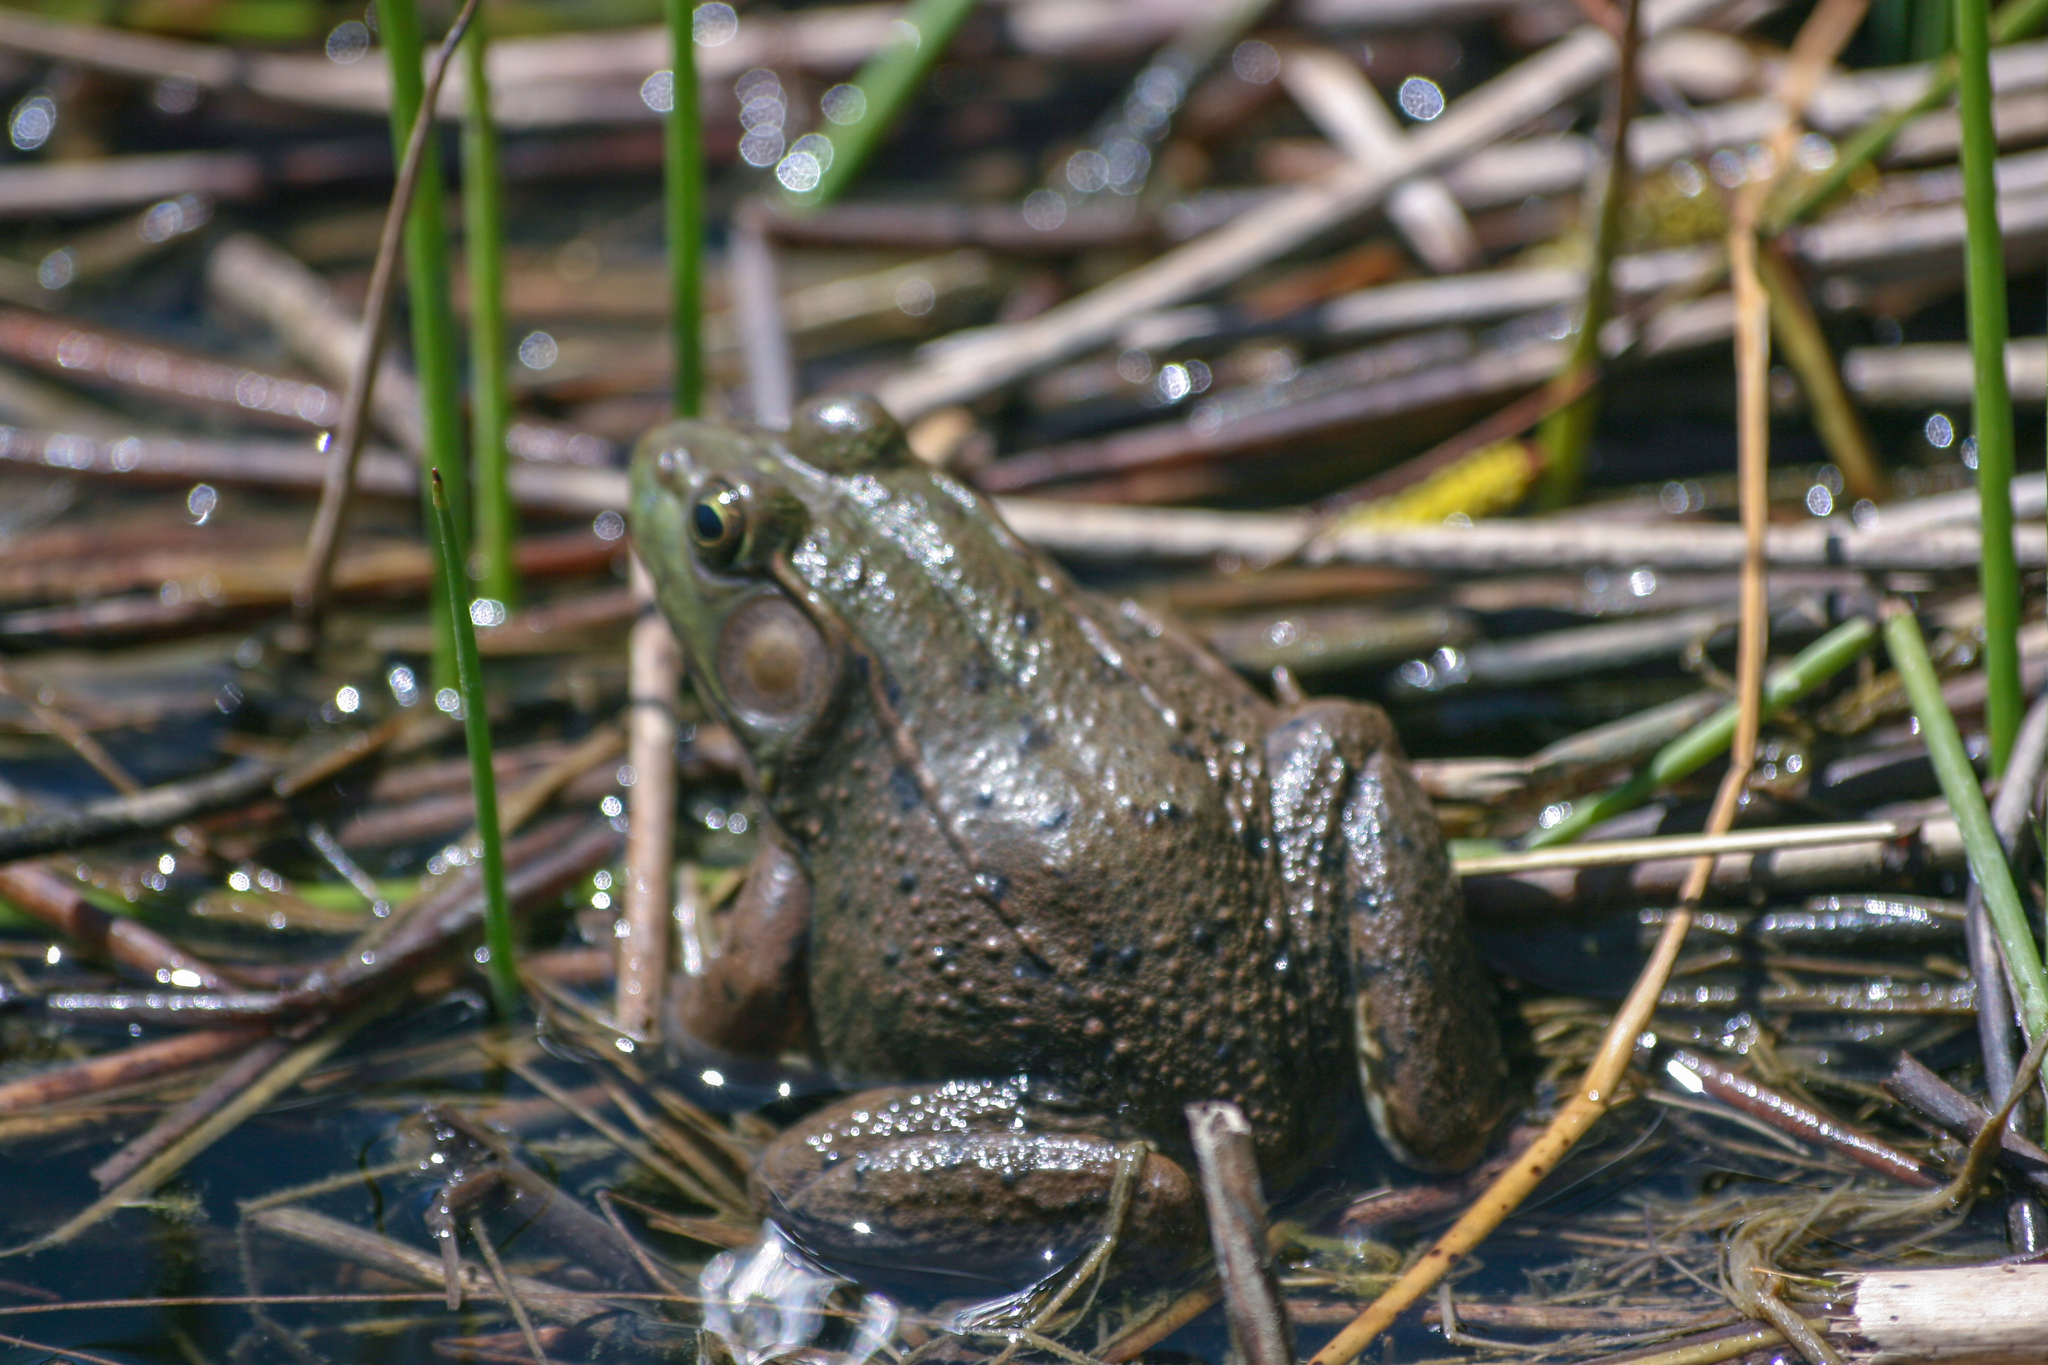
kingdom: Animalia
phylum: Chordata
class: Amphibia
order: Anura
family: Ranidae
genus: Lithobates
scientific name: Lithobates clamitans
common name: Green frog
